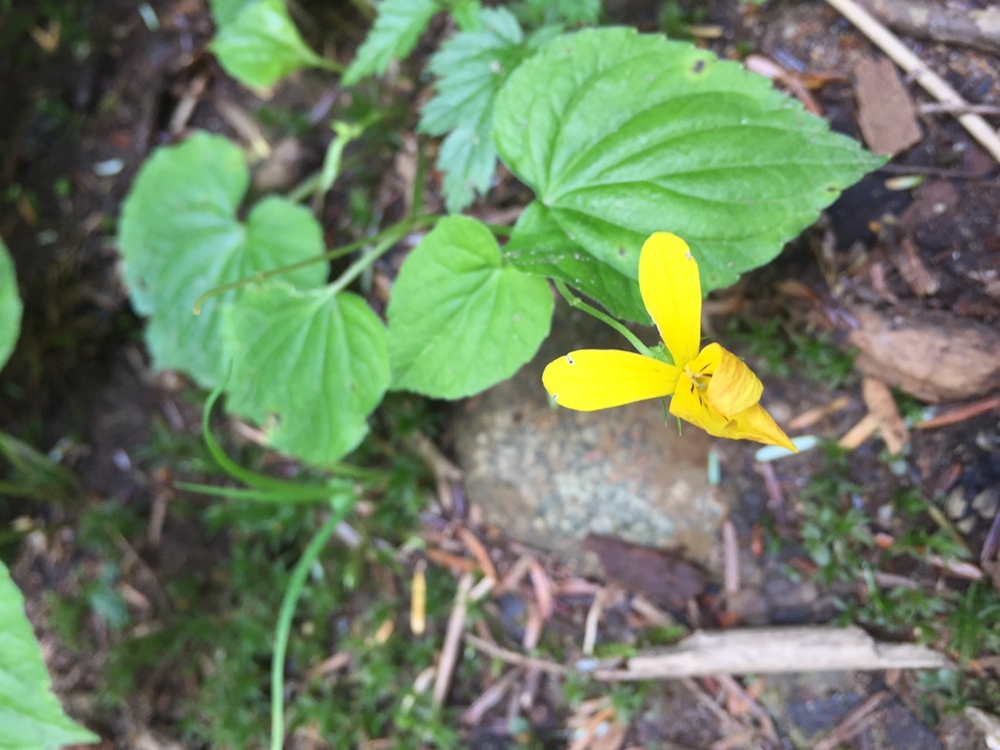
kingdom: Plantae
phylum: Tracheophyta
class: Magnoliopsida
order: Malpighiales
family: Violaceae
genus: Viola
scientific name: Viola glabella
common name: Stream violet
